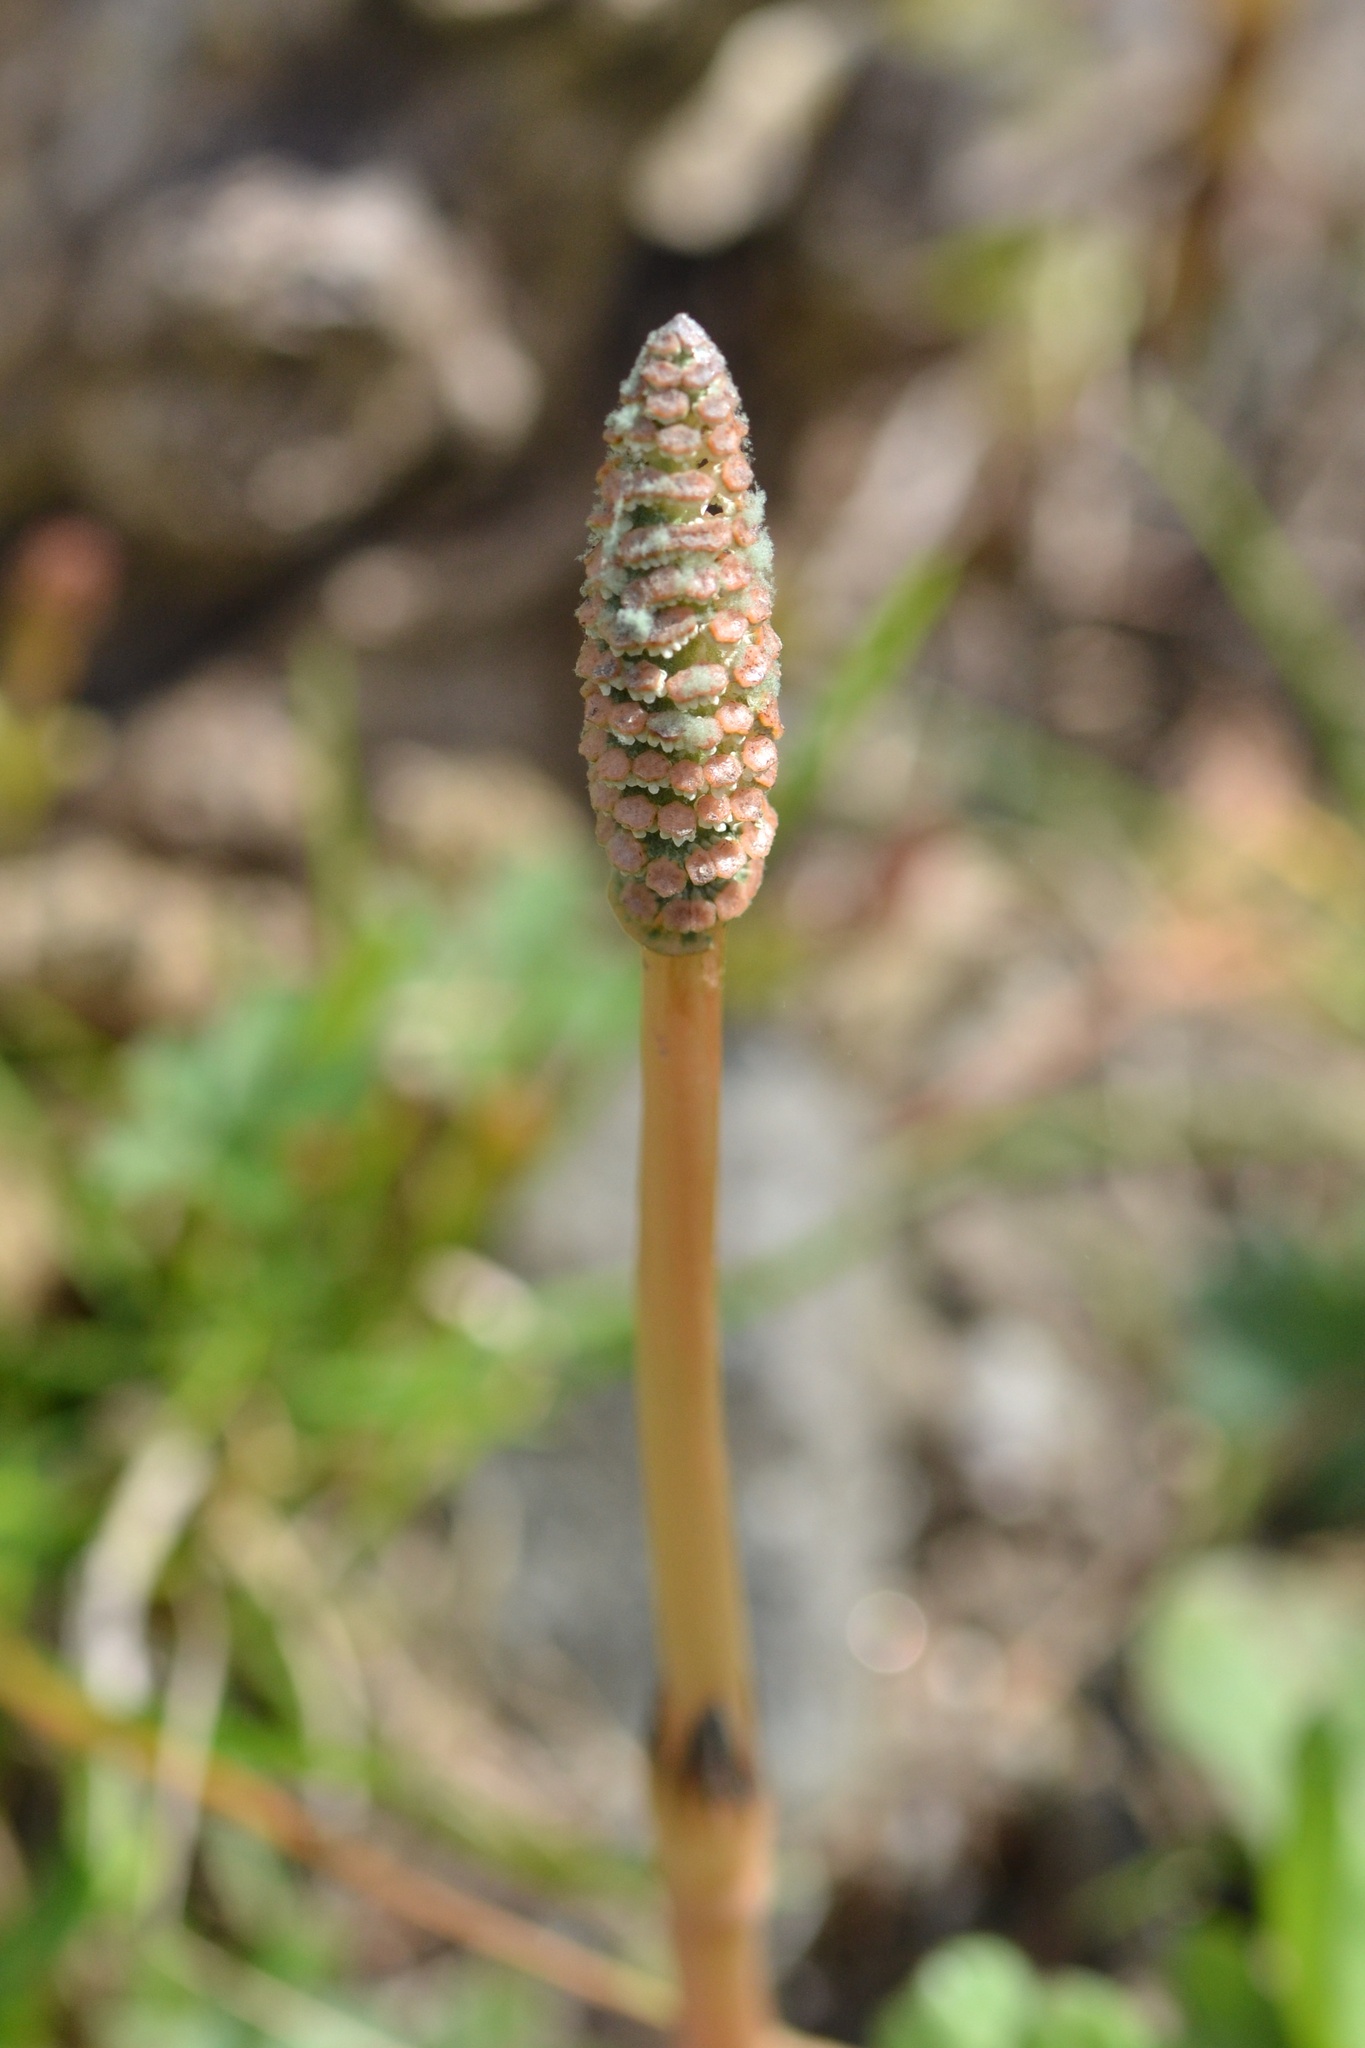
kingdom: Plantae
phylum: Tracheophyta
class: Polypodiopsida
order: Equisetales
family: Equisetaceae
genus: Equisetum
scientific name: Equisetum arvense
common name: Field horsetail
